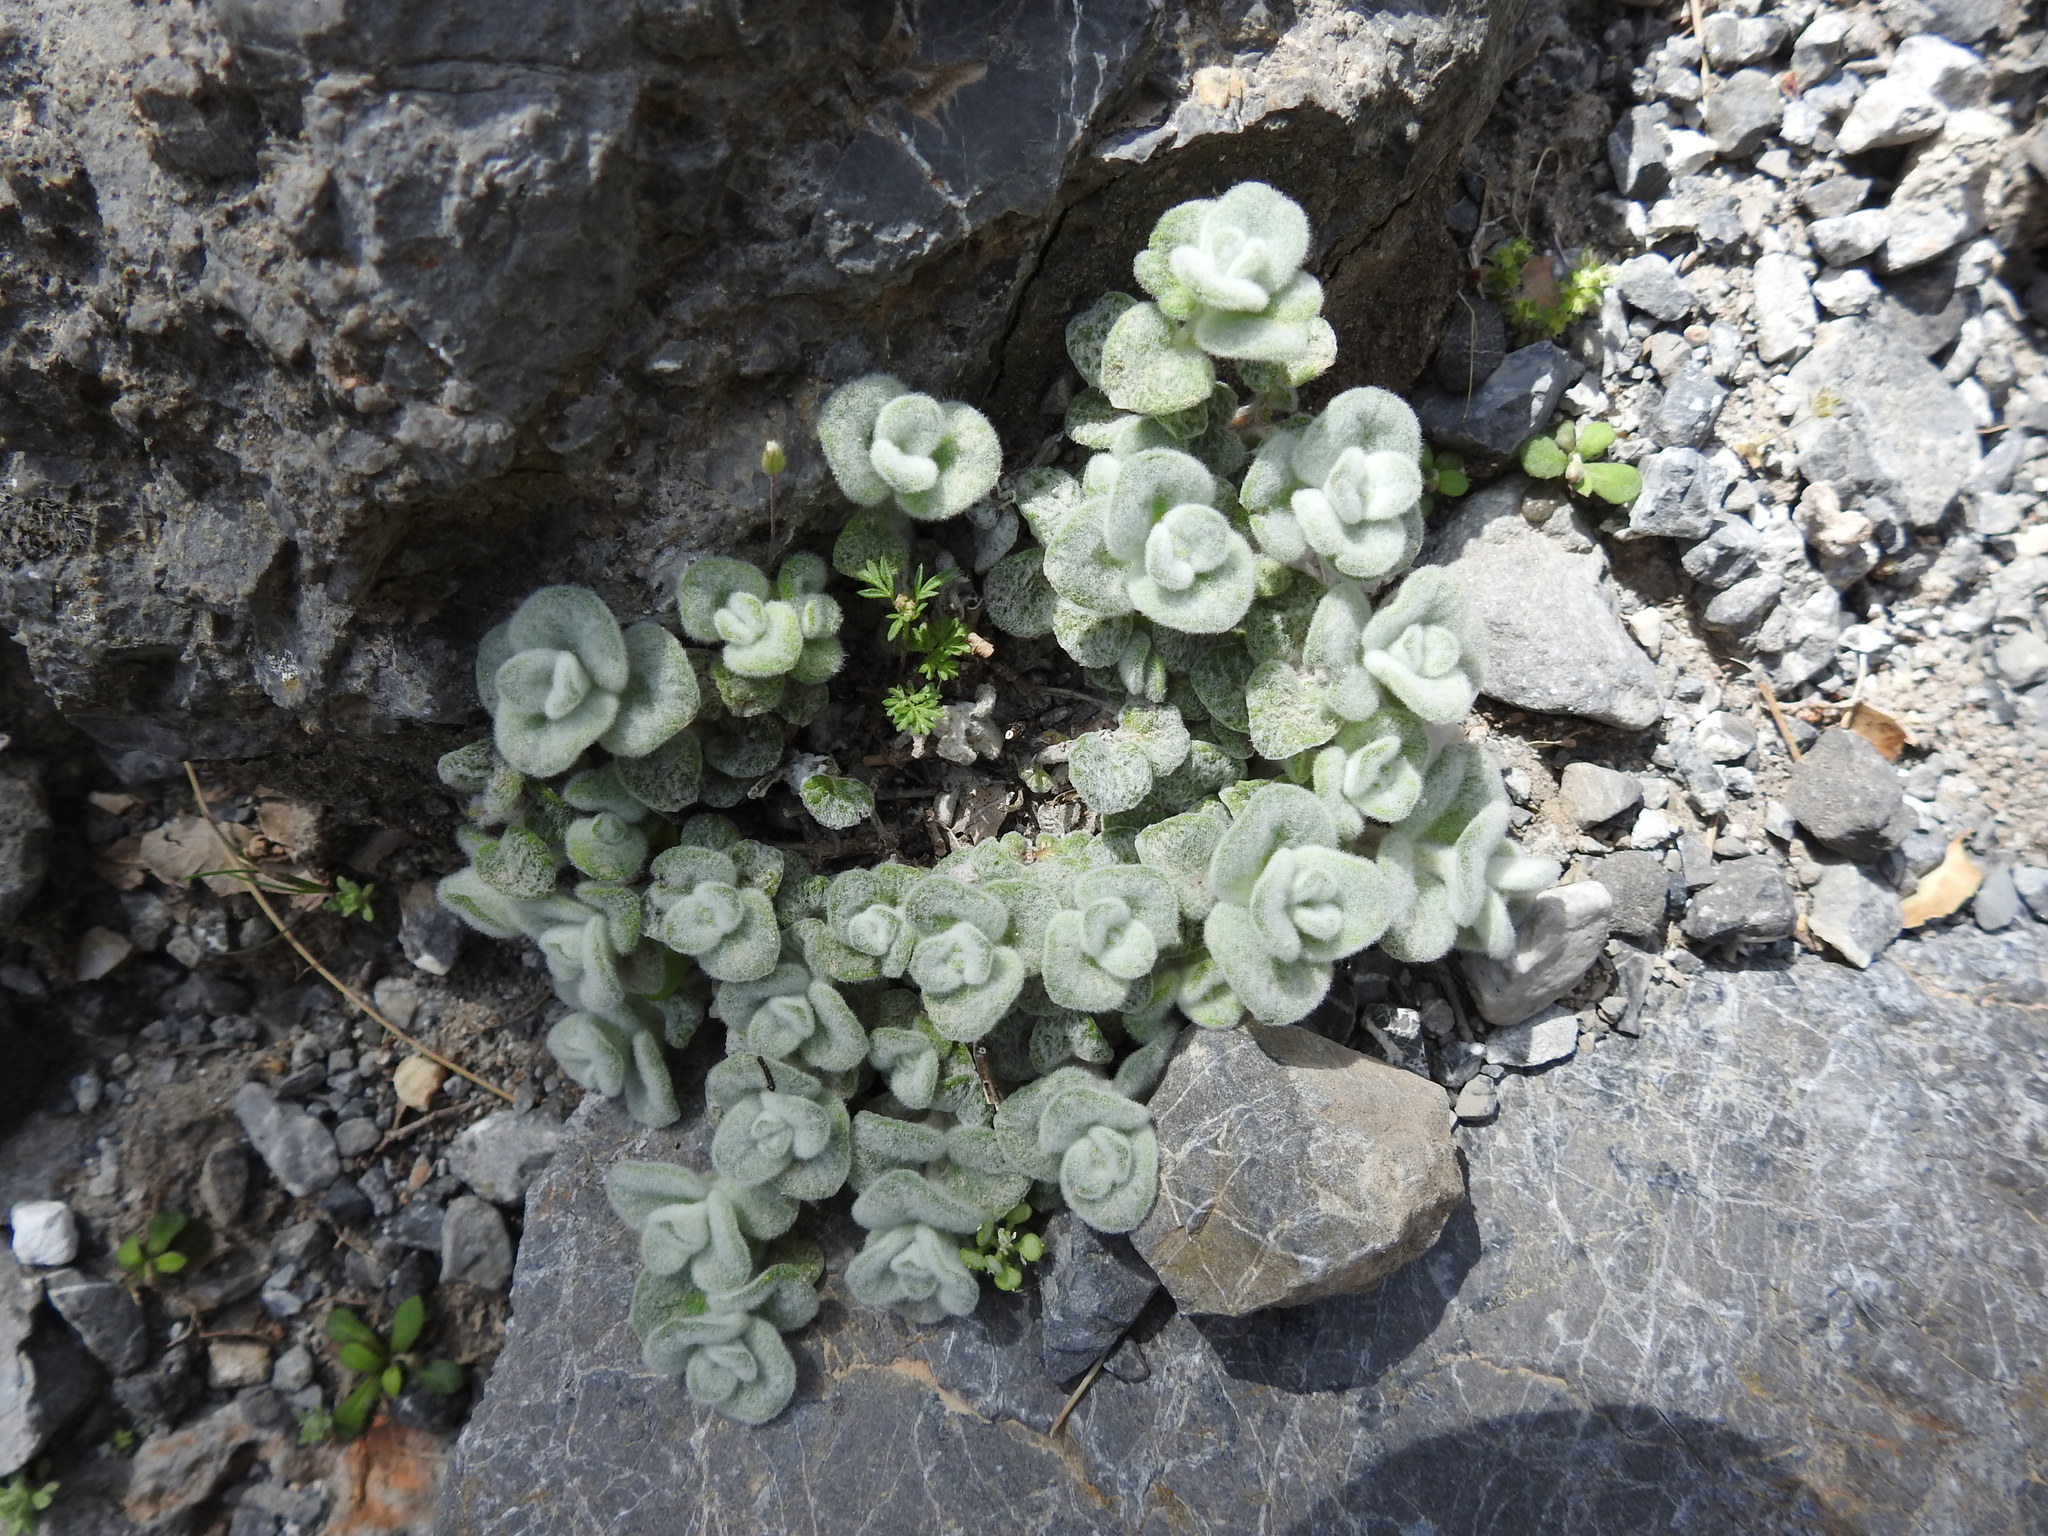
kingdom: Plantae
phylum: Tracheophyta
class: Magnoliopsida
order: Lamiales
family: Lamiaceae
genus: Origanum
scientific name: Origanum dictamnus
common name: Cretan dittany
